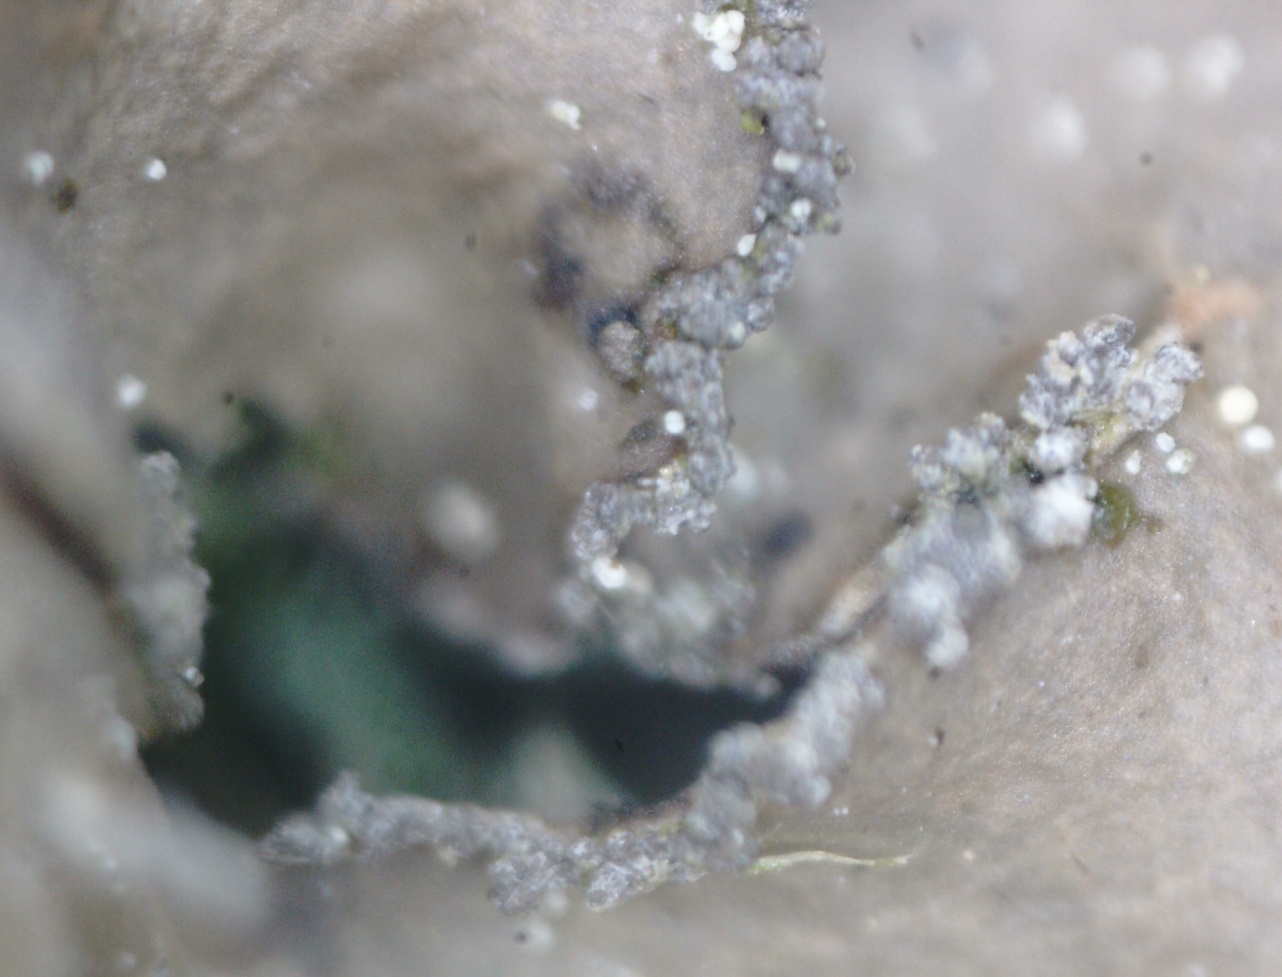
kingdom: Fungi
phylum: Ascomycota
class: Lecanoromycetes
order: Peltigerales
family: Nephromataceae
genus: Nephroma
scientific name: Nephroma parile
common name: Powdery kidney lichen
